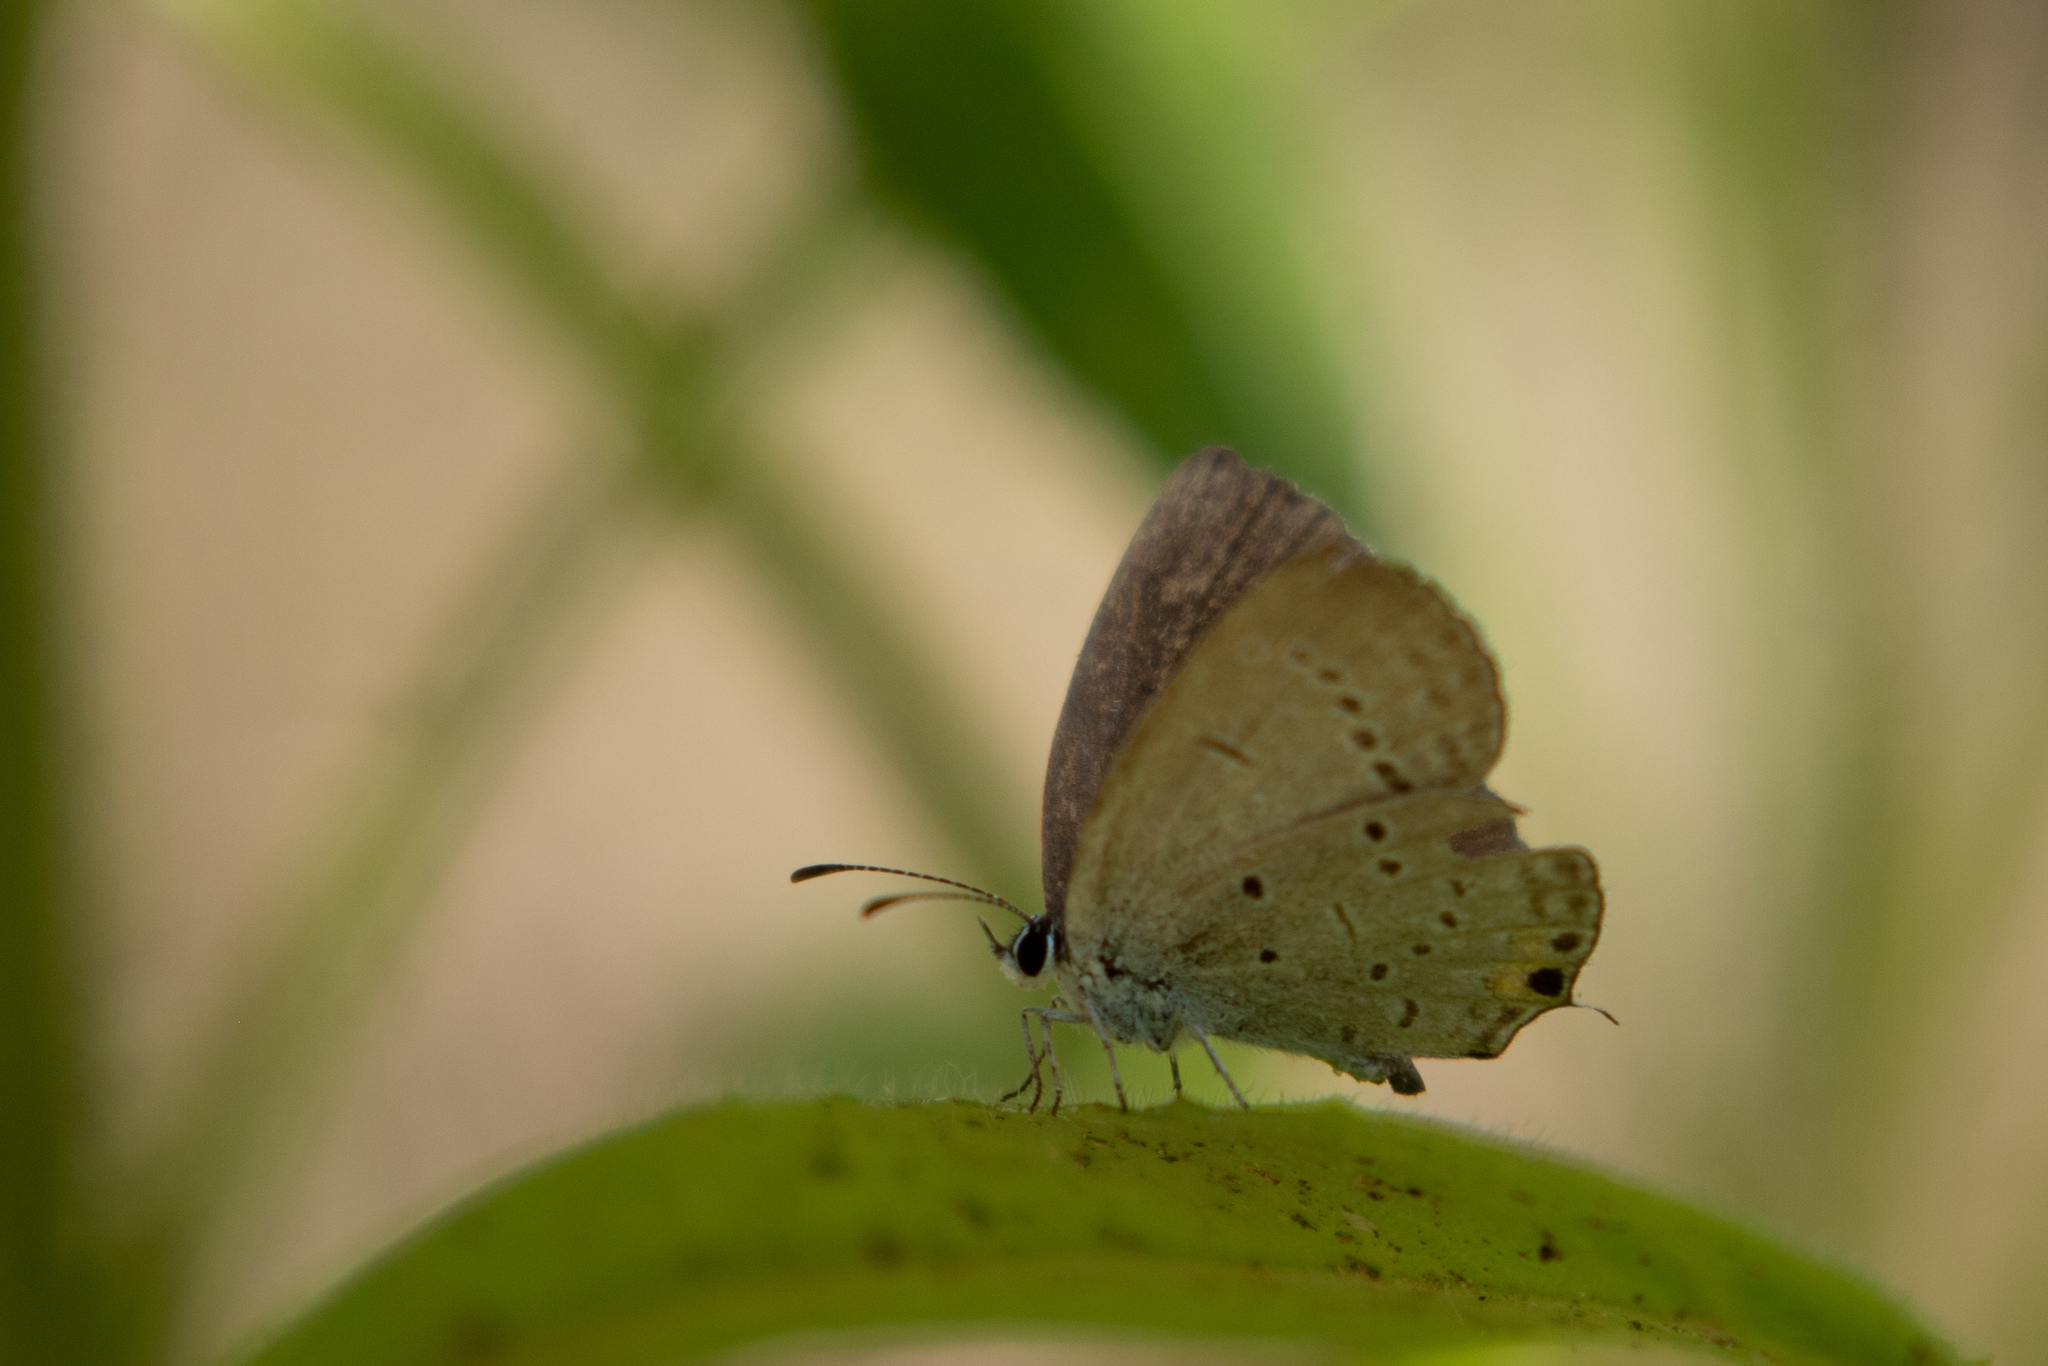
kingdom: Animalia
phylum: Arthropoda
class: Insecta
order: Lepidoptera
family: Lycaenidae
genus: Elkalyce
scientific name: Elkalyce comyntas
